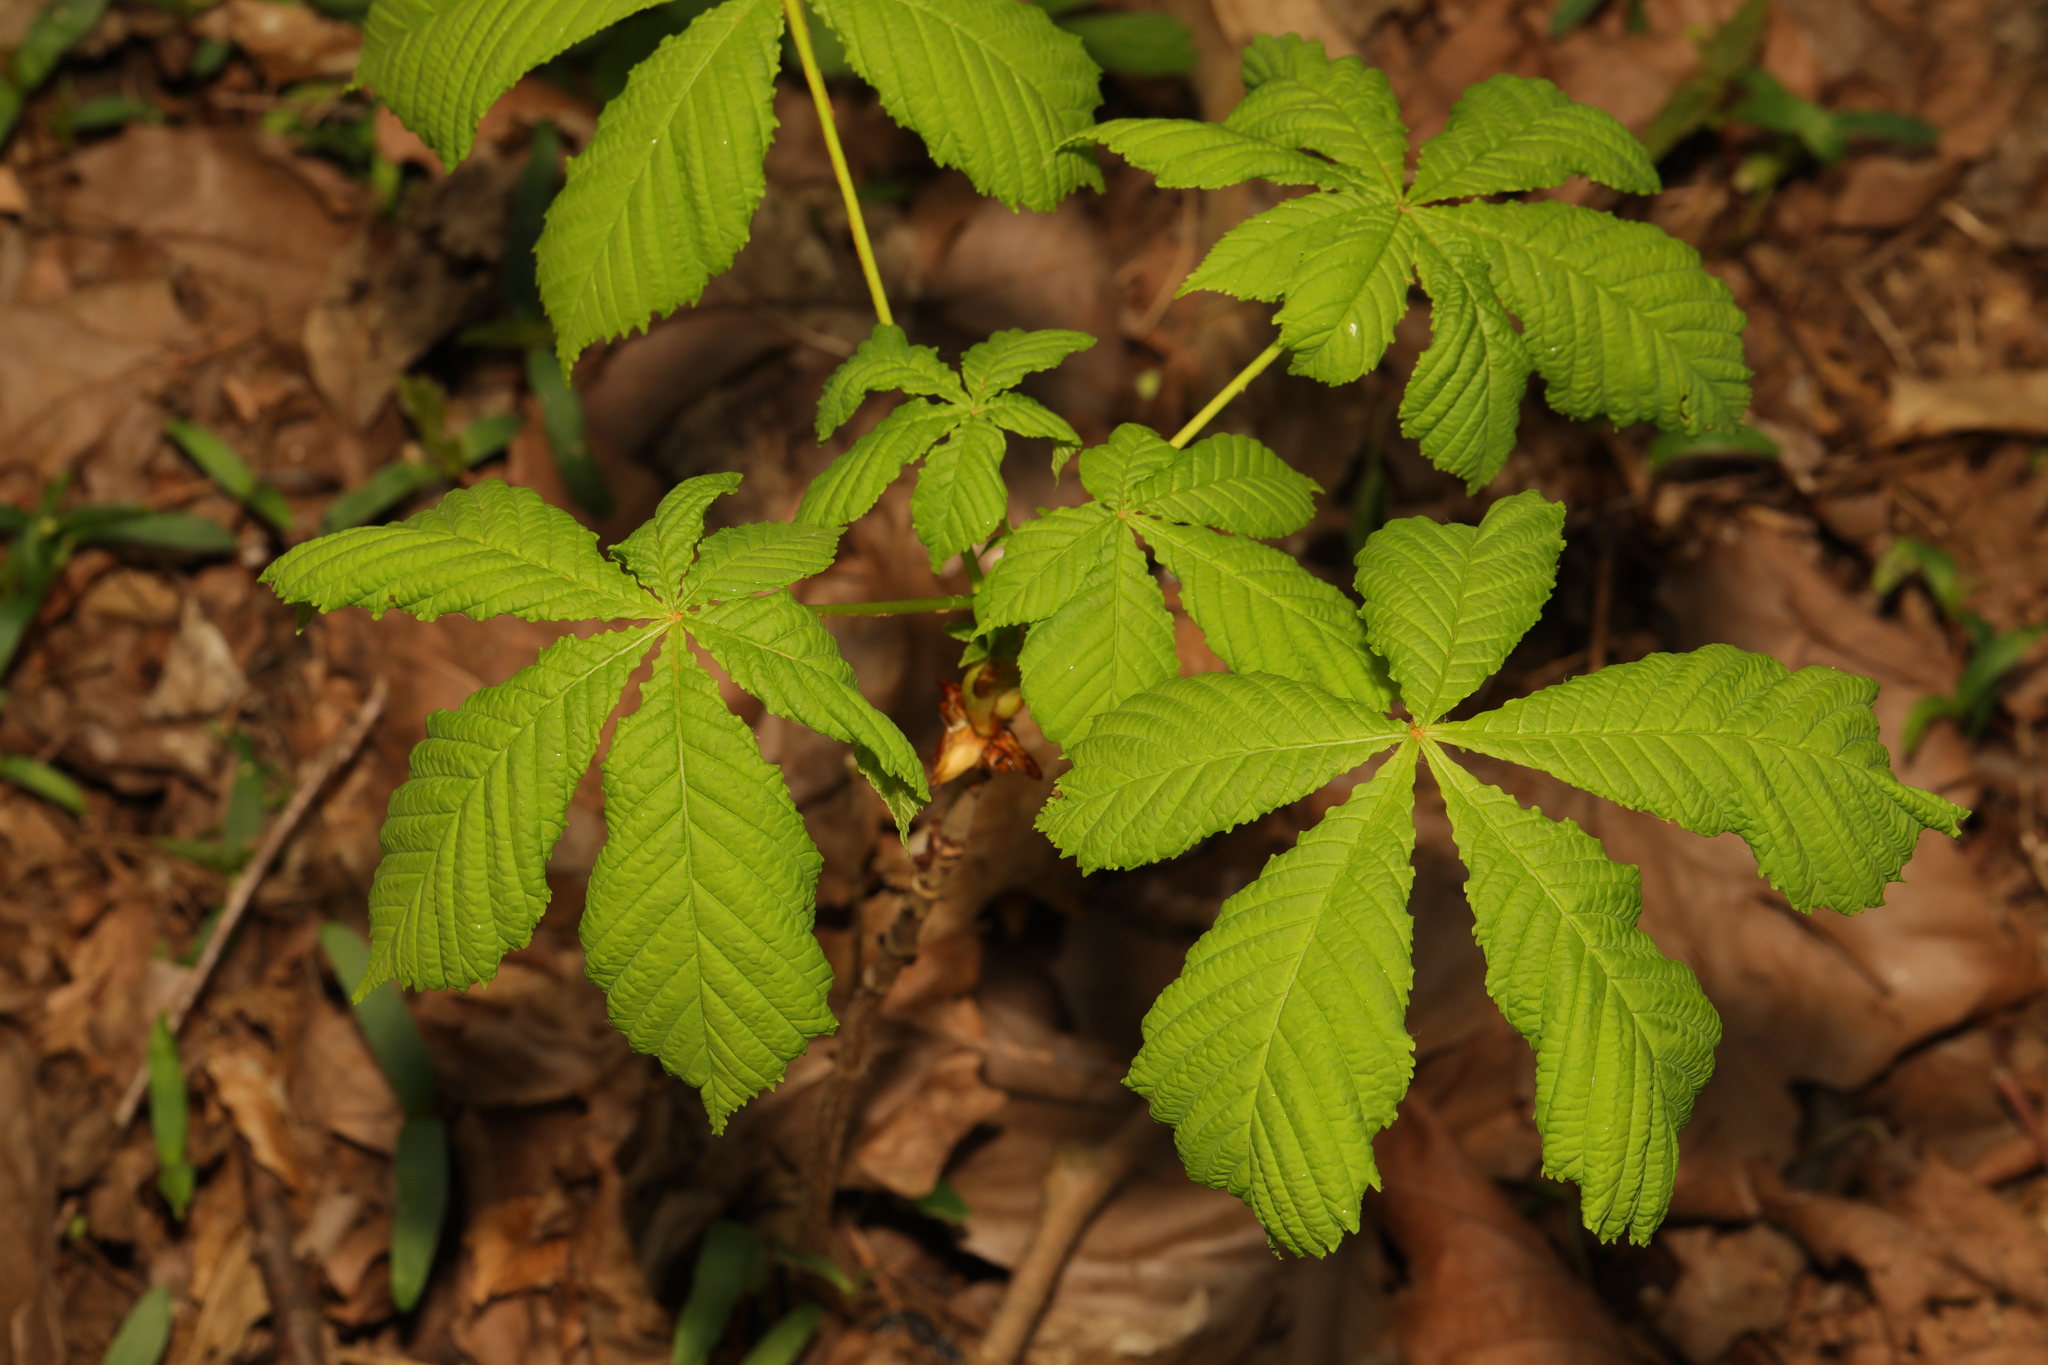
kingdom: Plantae
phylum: Tracheophyta
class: Magnoliopsida
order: Sapindales
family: Sapindaceae
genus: Aesculus
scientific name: Aesculus hippocastanum
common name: Horse-chestnut
